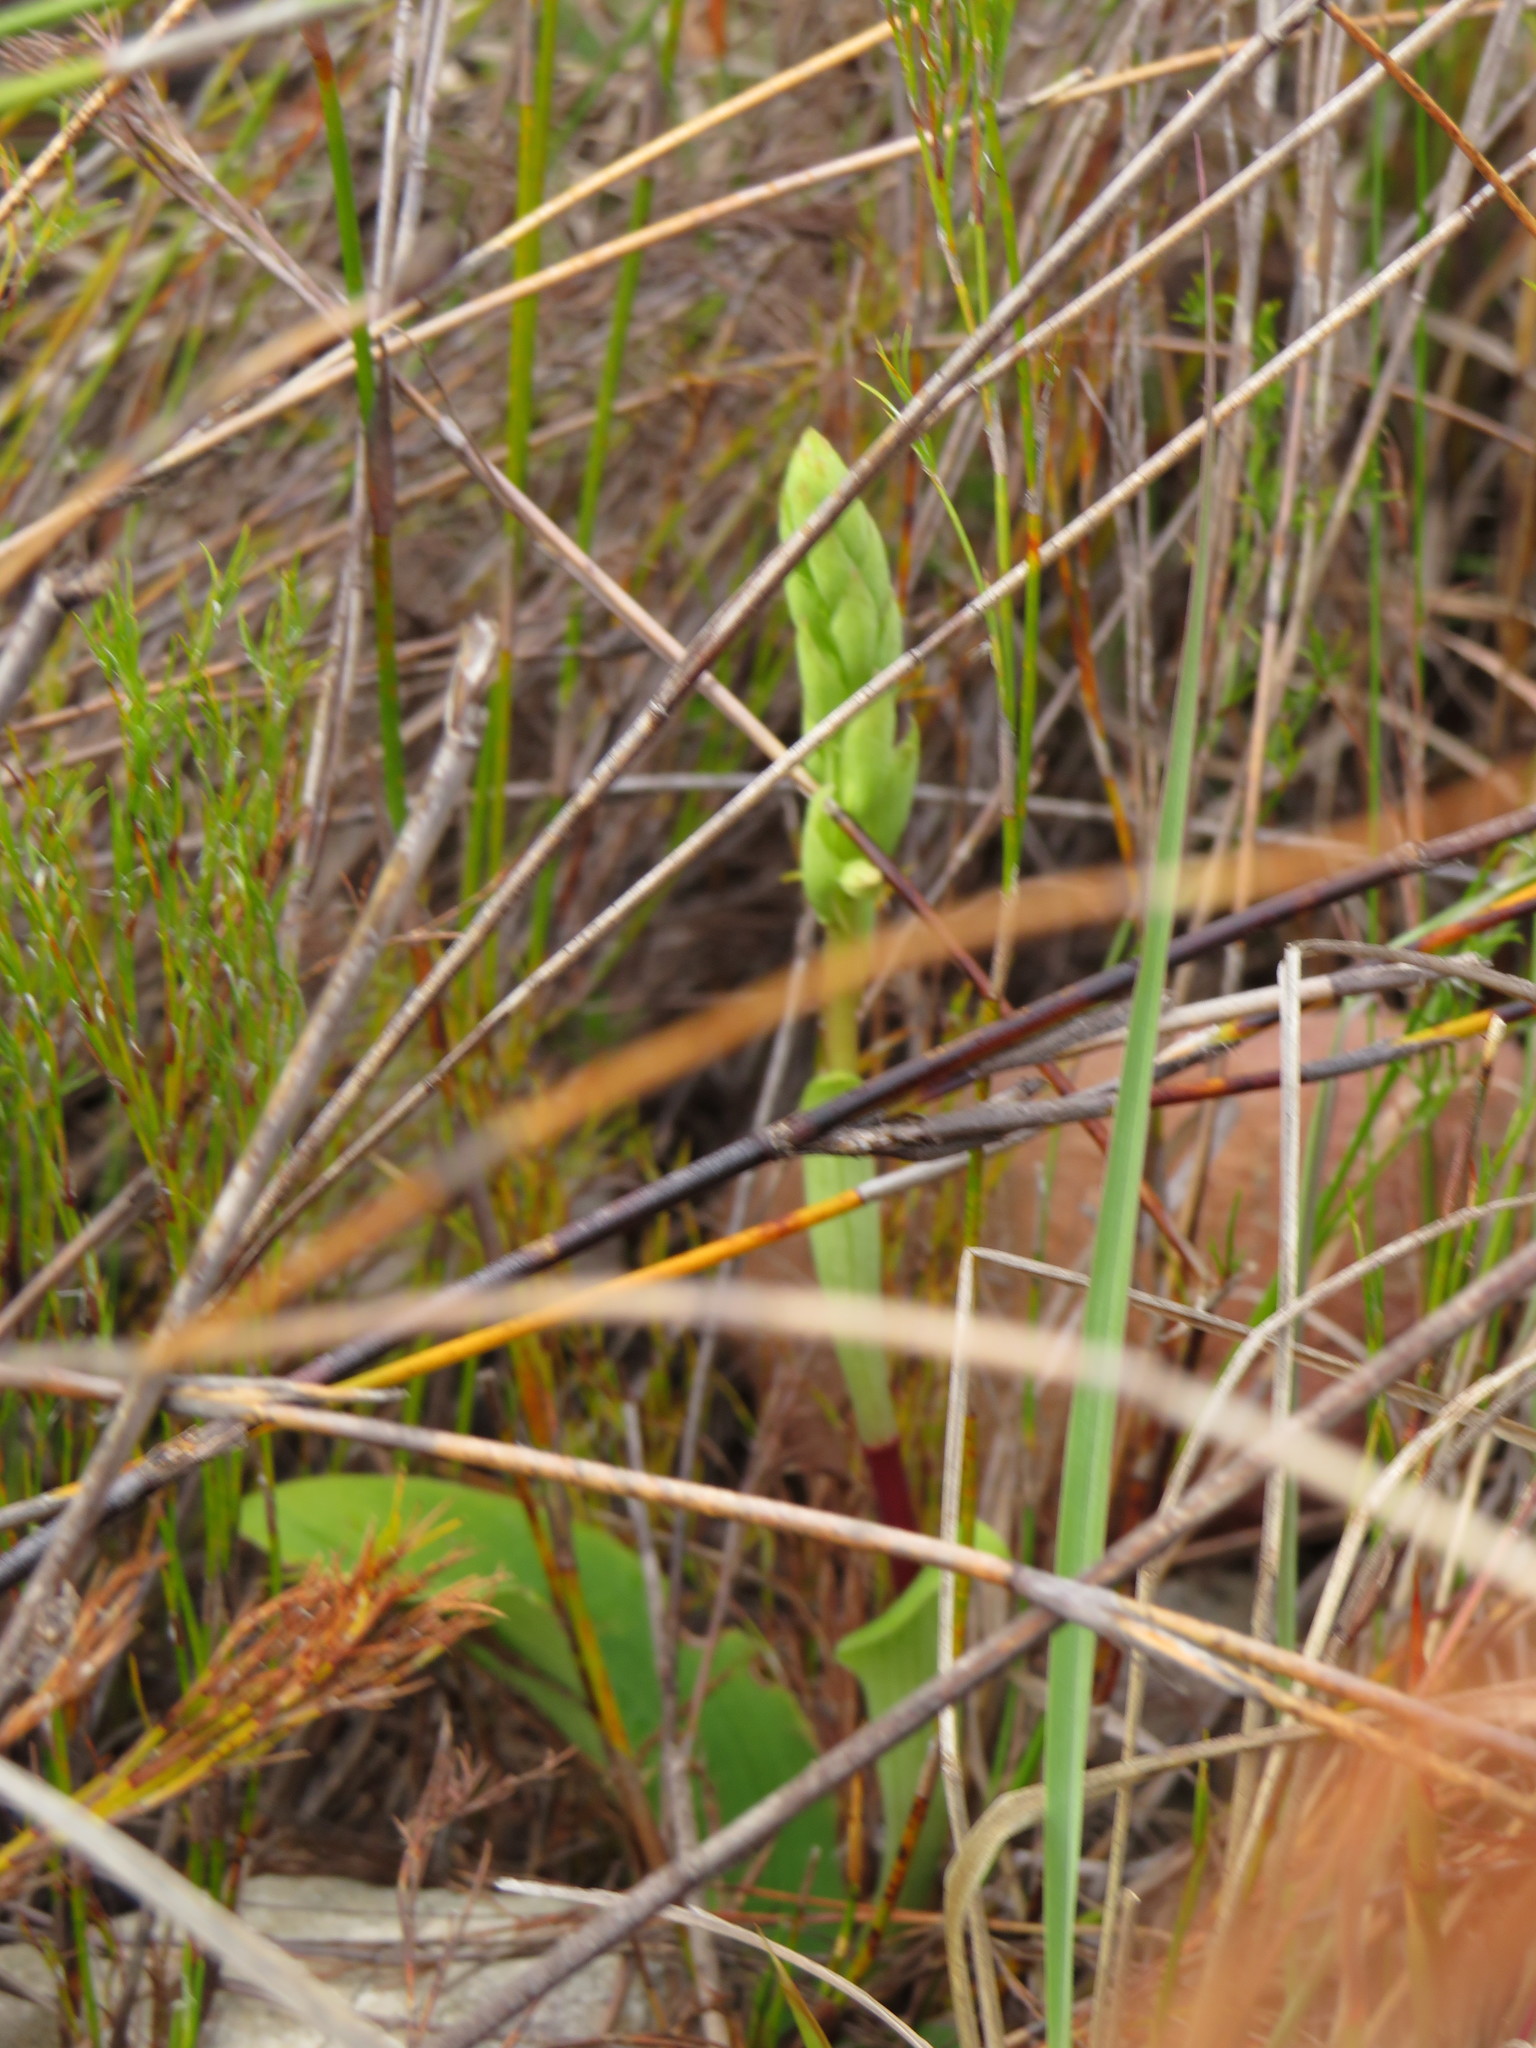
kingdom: Plantae
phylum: Tracheophyta
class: Liliopsida
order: Asparagales
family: Orchidaceae
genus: Satyrium
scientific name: Satyrium humile
